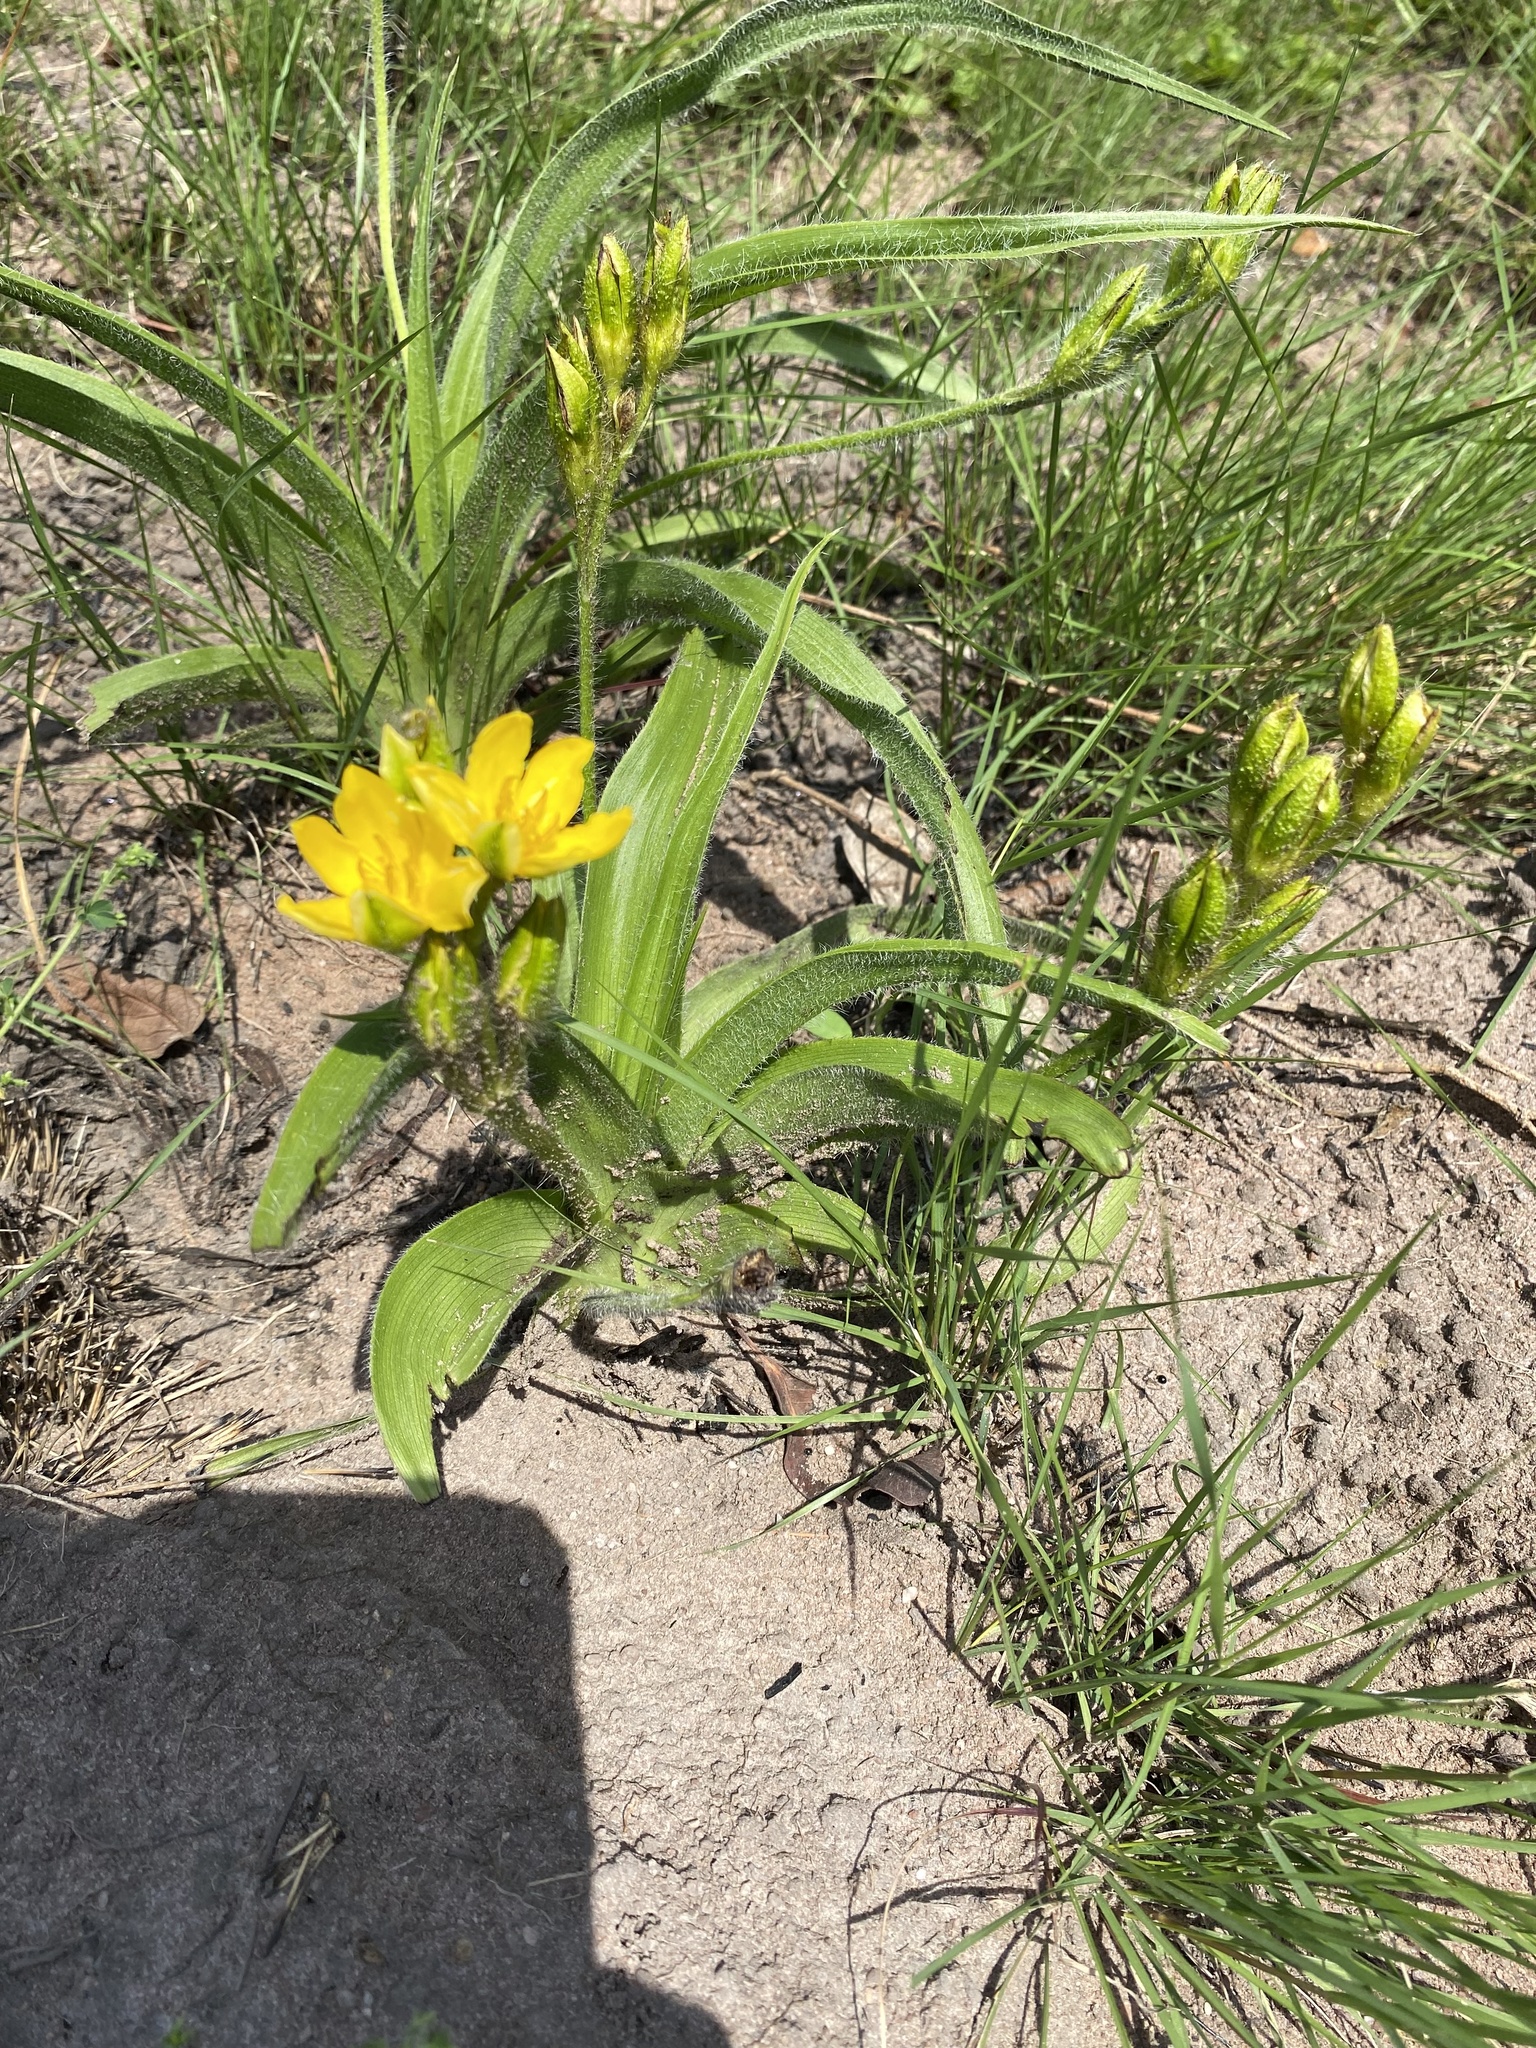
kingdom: Plantae
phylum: Tracheophyta
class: Liliopsida
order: Asparagales
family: Hypoxidaceae
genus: Hypoxis
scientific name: Hypoxis hemerocallidea
